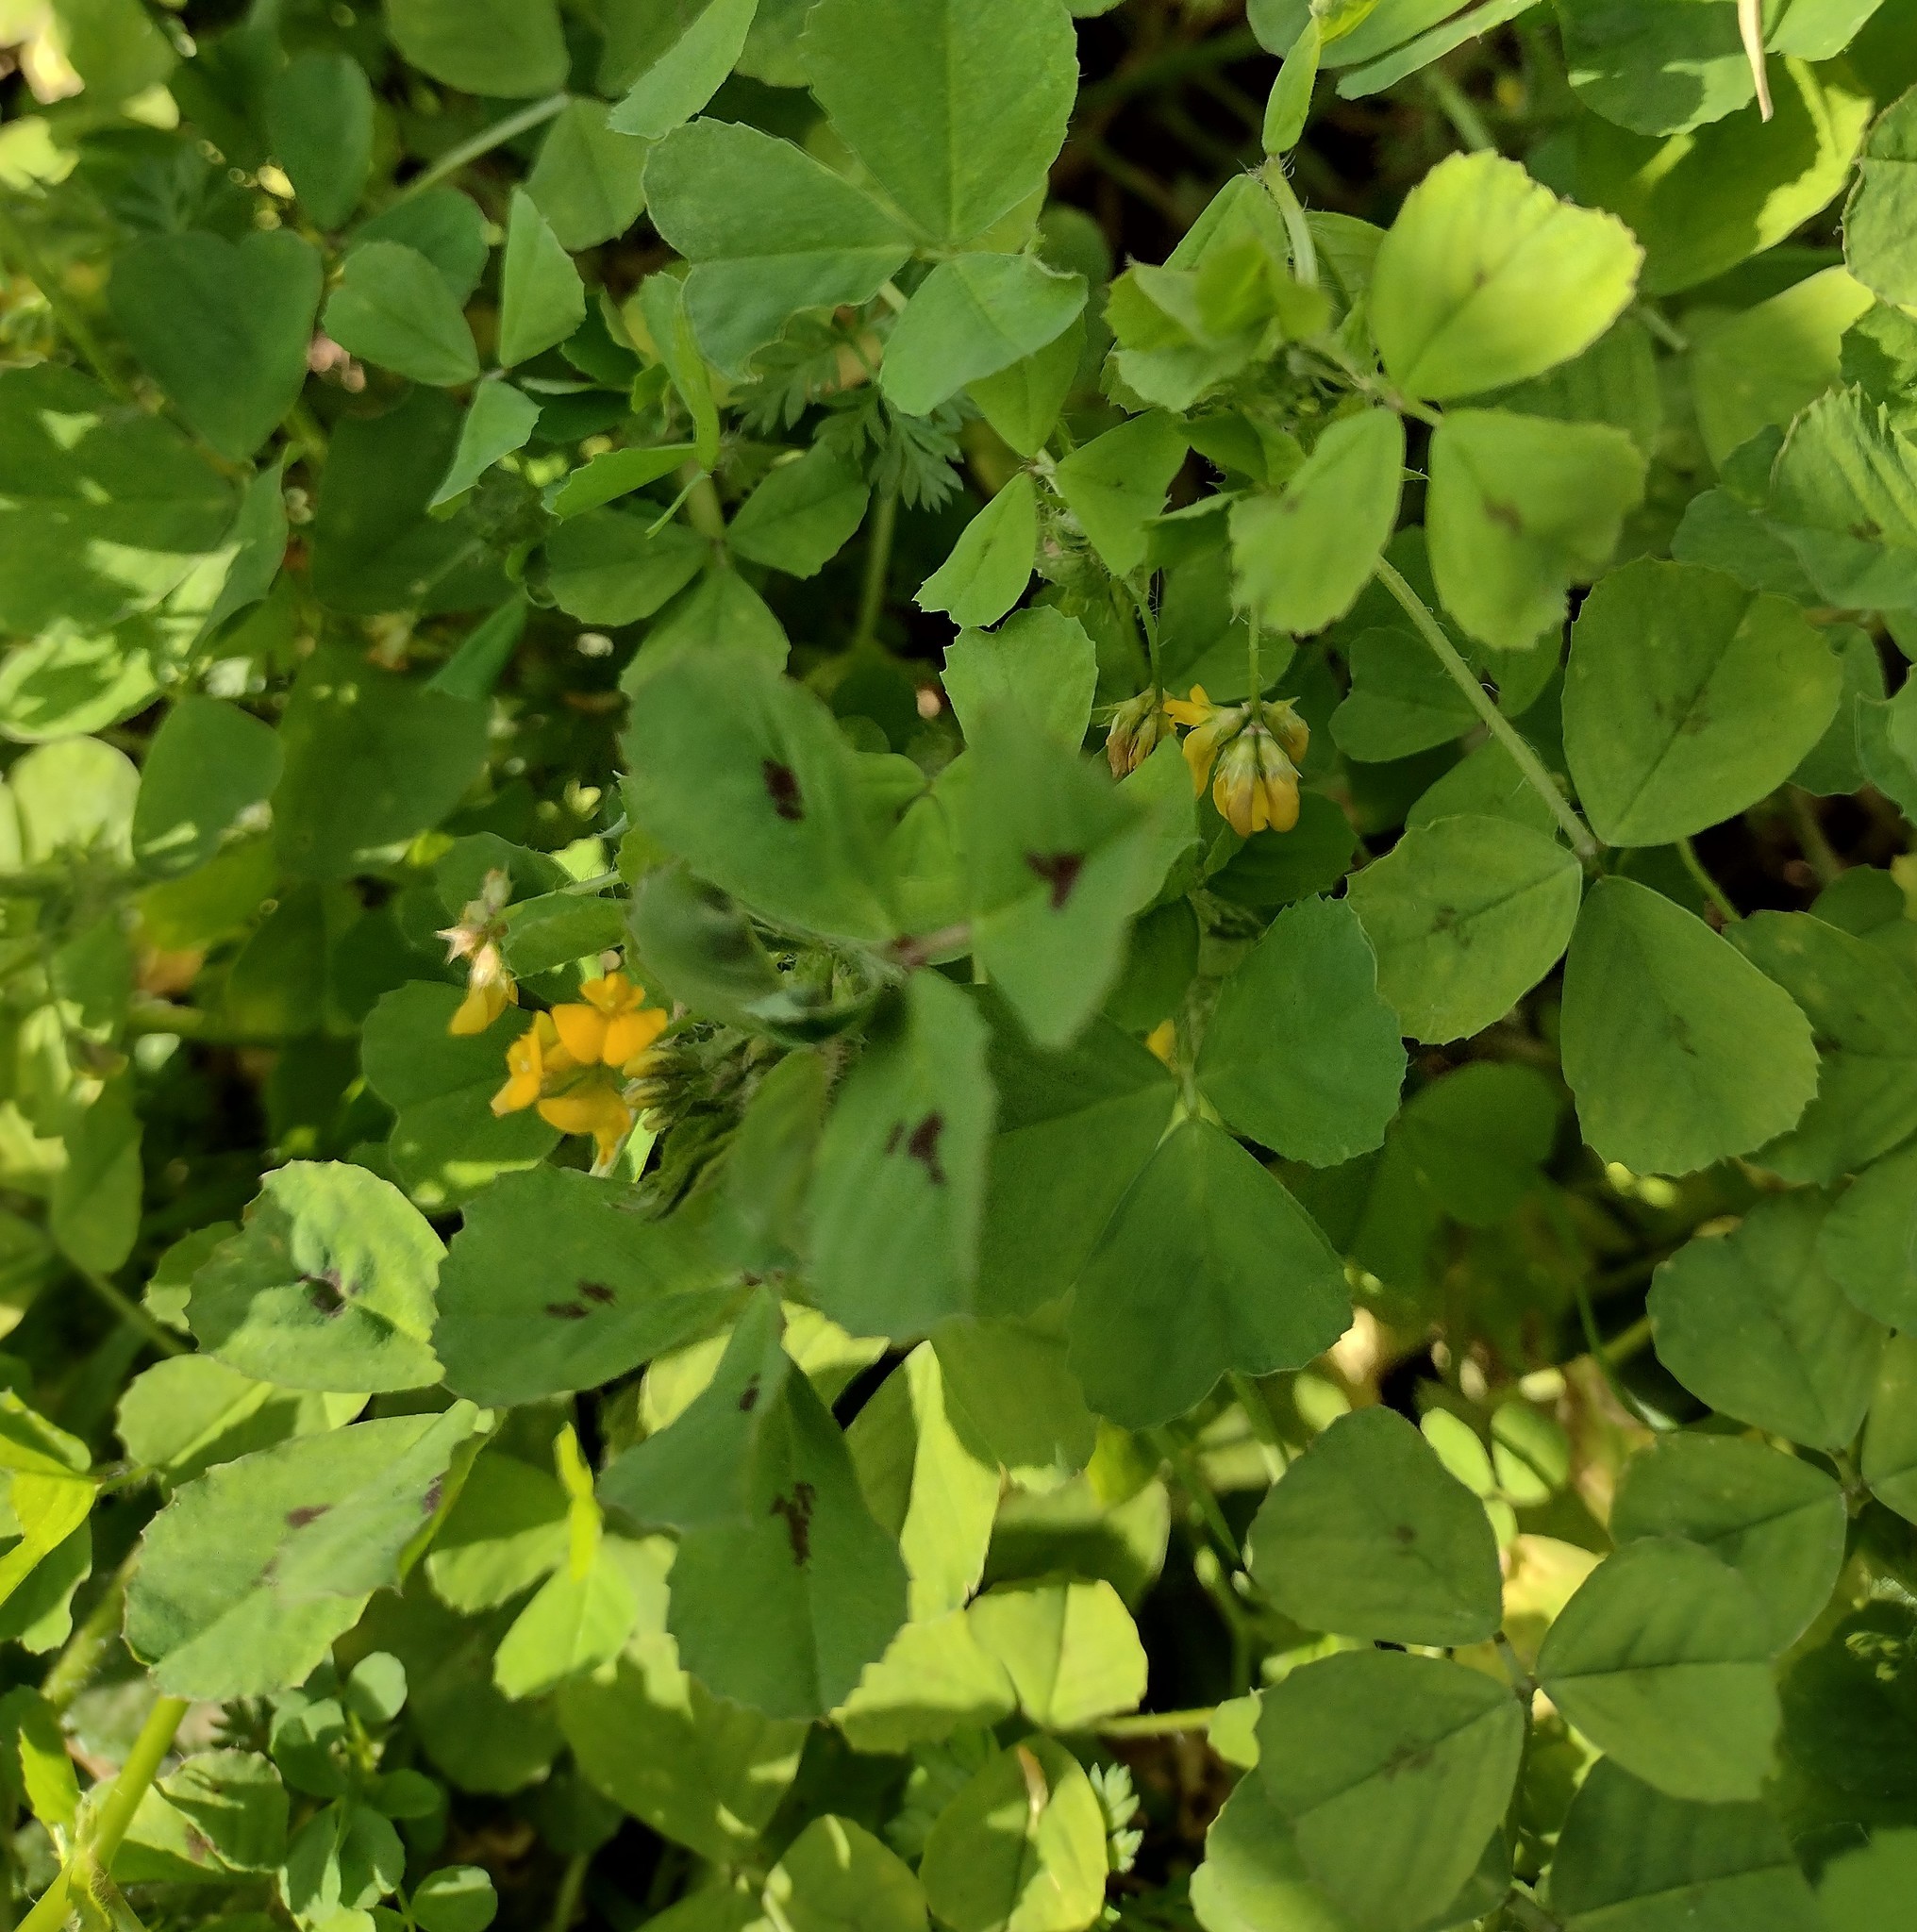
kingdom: Plantae
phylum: Tracheophyta
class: Magnoliopsida
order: Fabales
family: Fabaceae
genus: Medicago
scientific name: Medicago arabica
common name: Spotted medick
